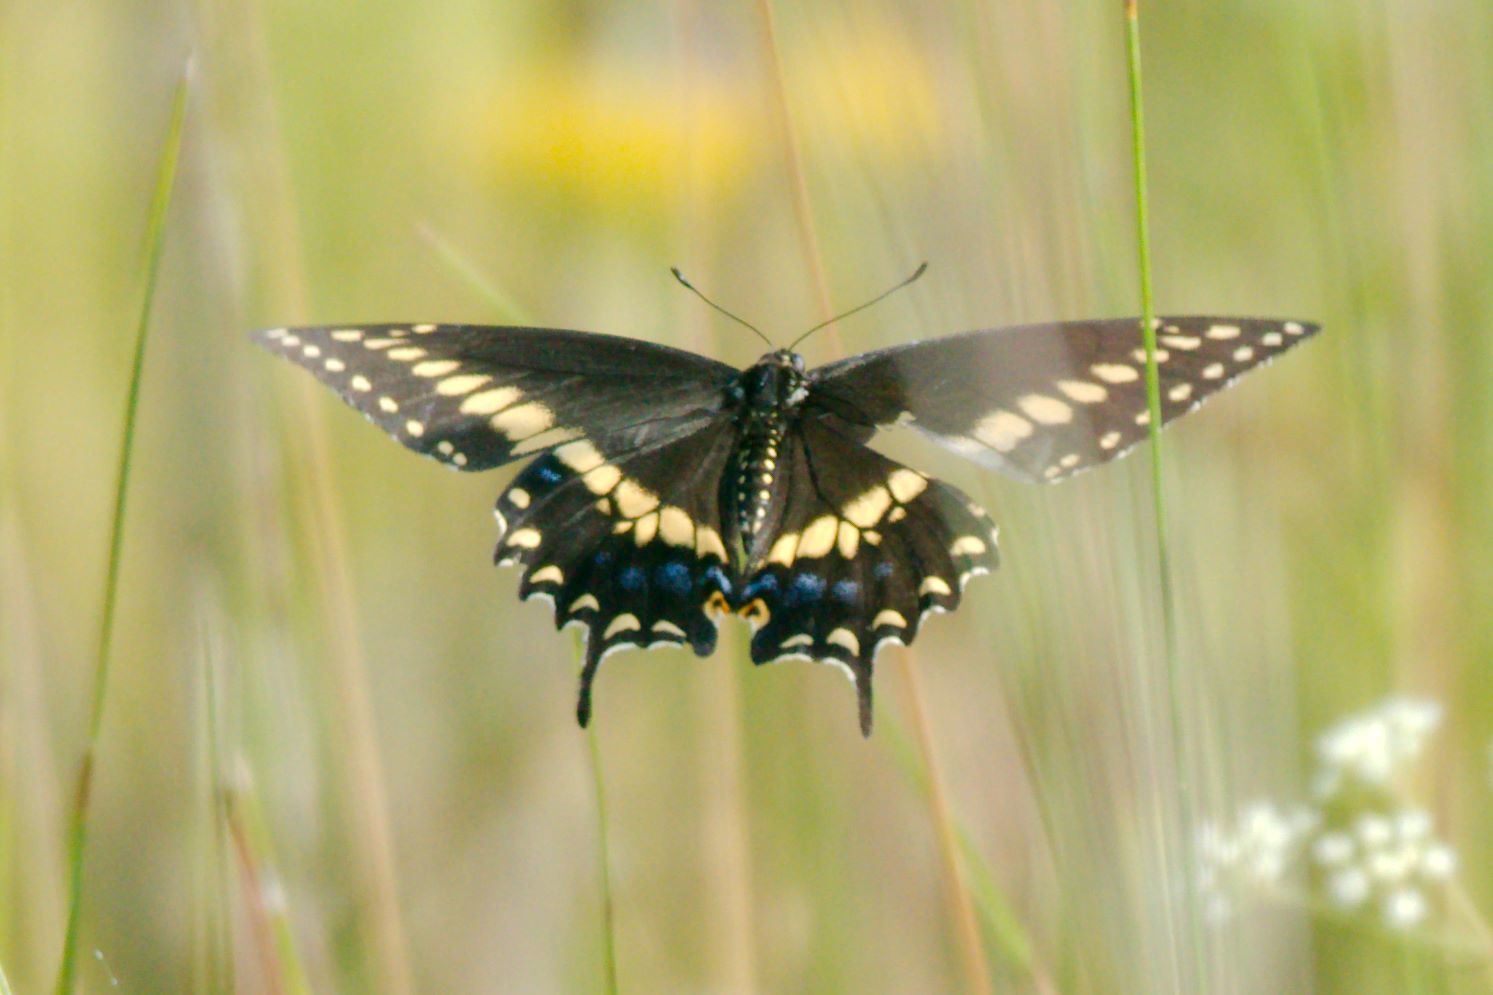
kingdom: Animalia
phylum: Arthropoda
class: Insecta
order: Lepidoptera
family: Papilionidae
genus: Papilio
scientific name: Papilio polyxenes
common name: Black swallowtail
